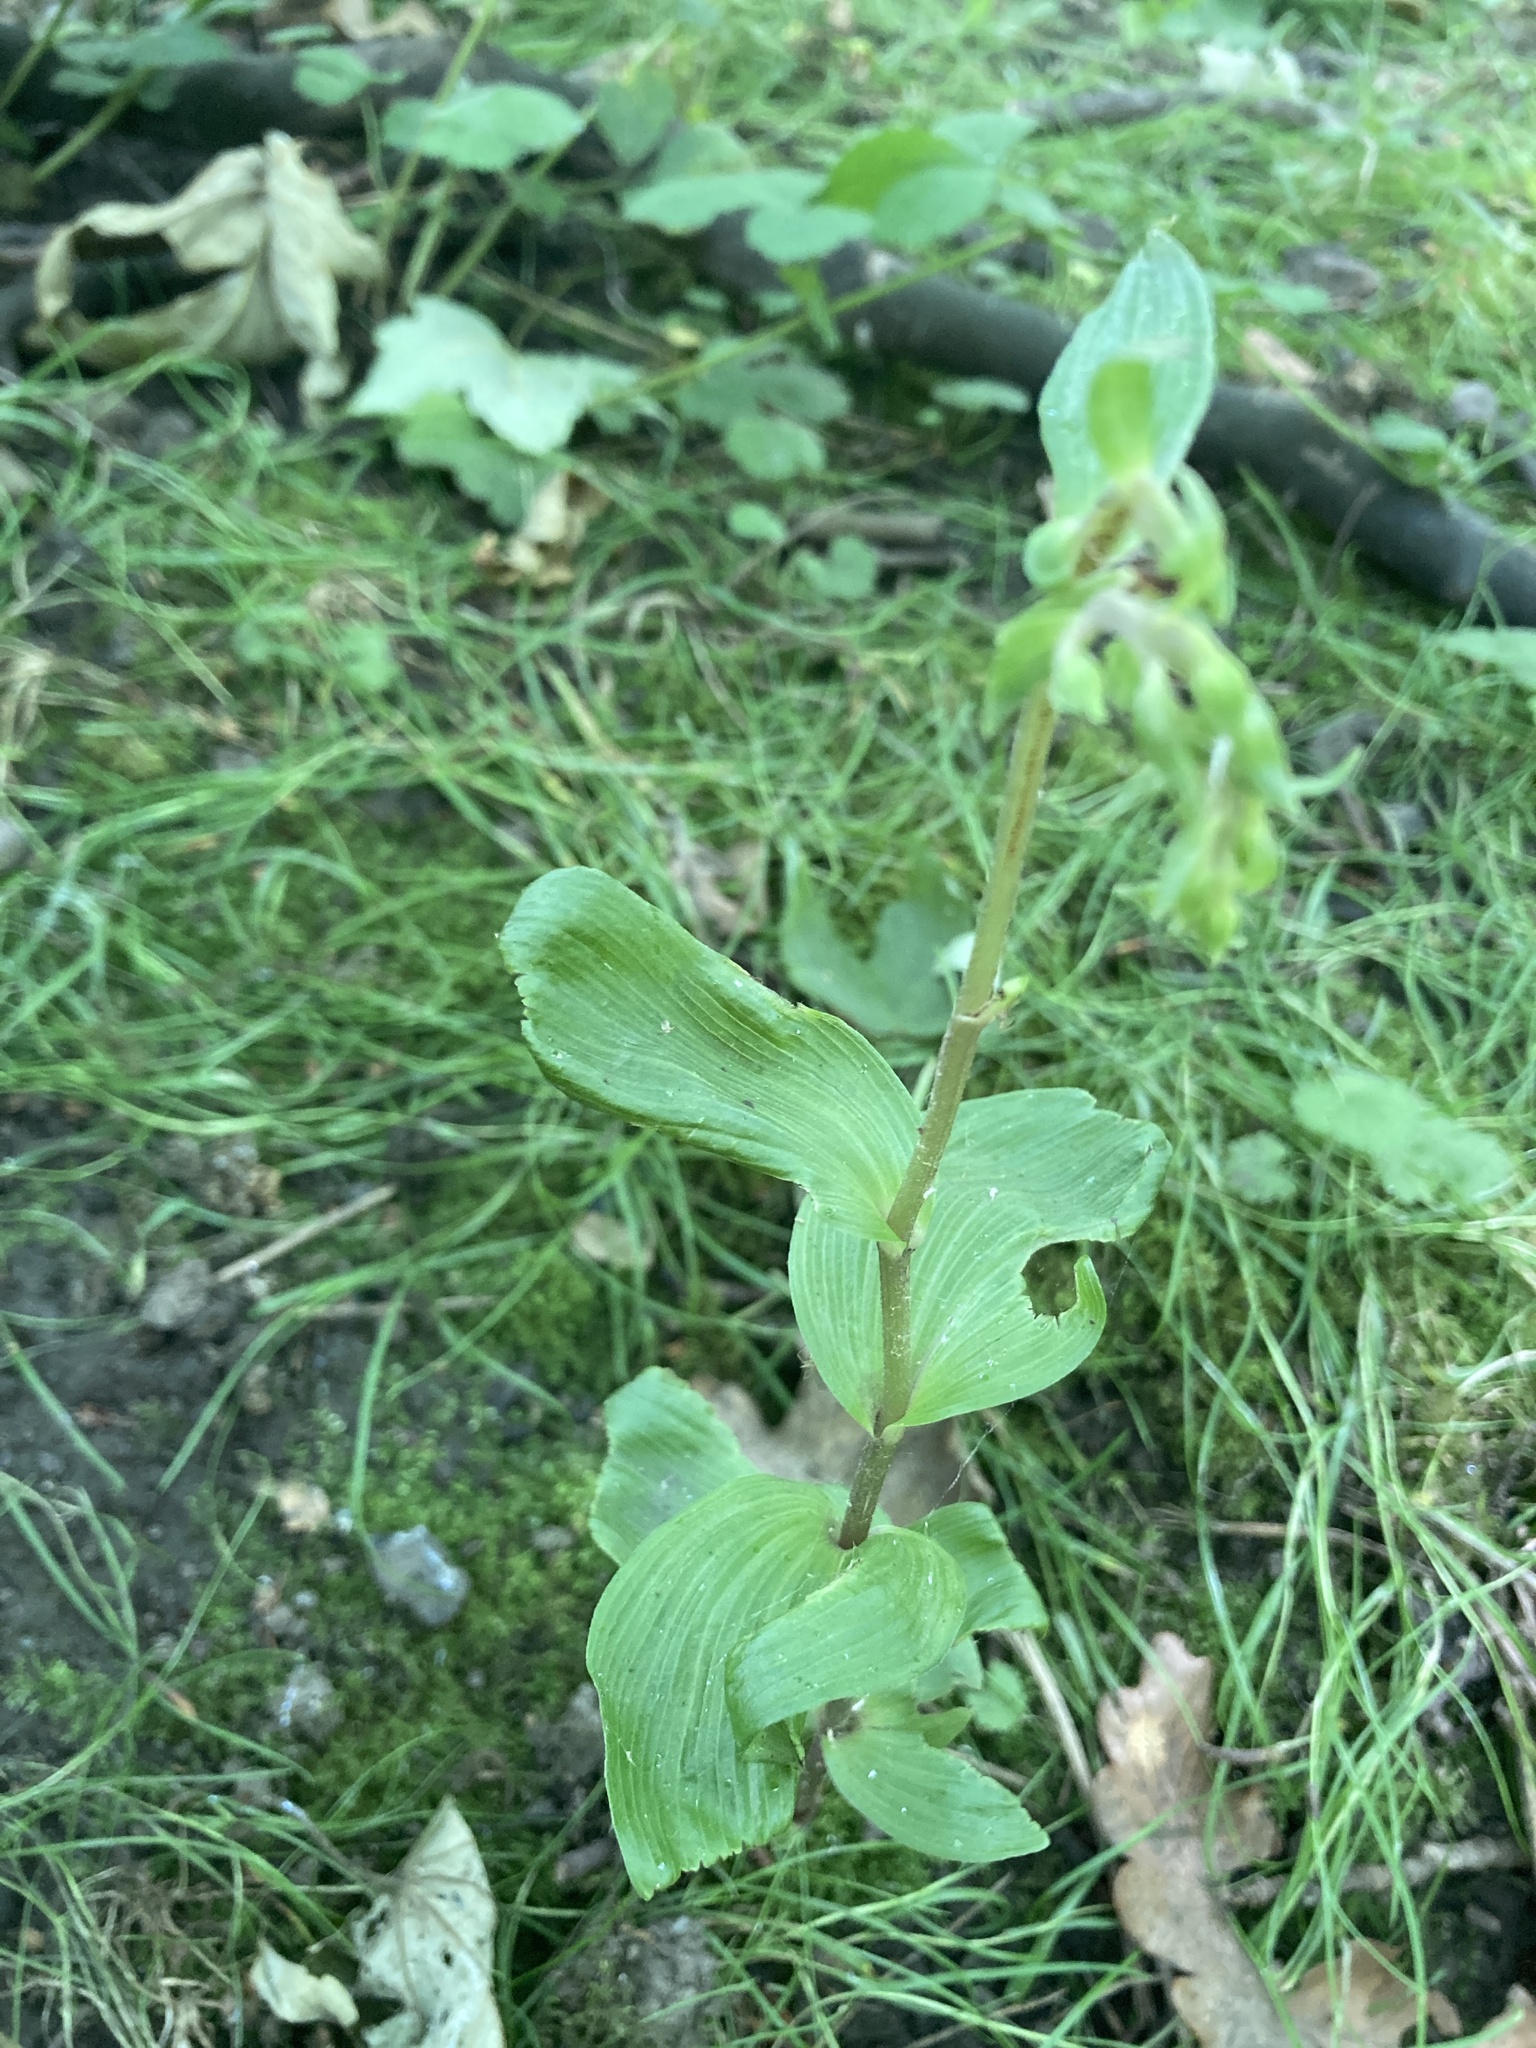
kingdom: Plantae
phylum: Tracheophyta
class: Liliopsida
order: Asparagales
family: Orchidaceae
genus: Epipactis
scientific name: Epipactis helleborine
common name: Broad-leaved helleborine
